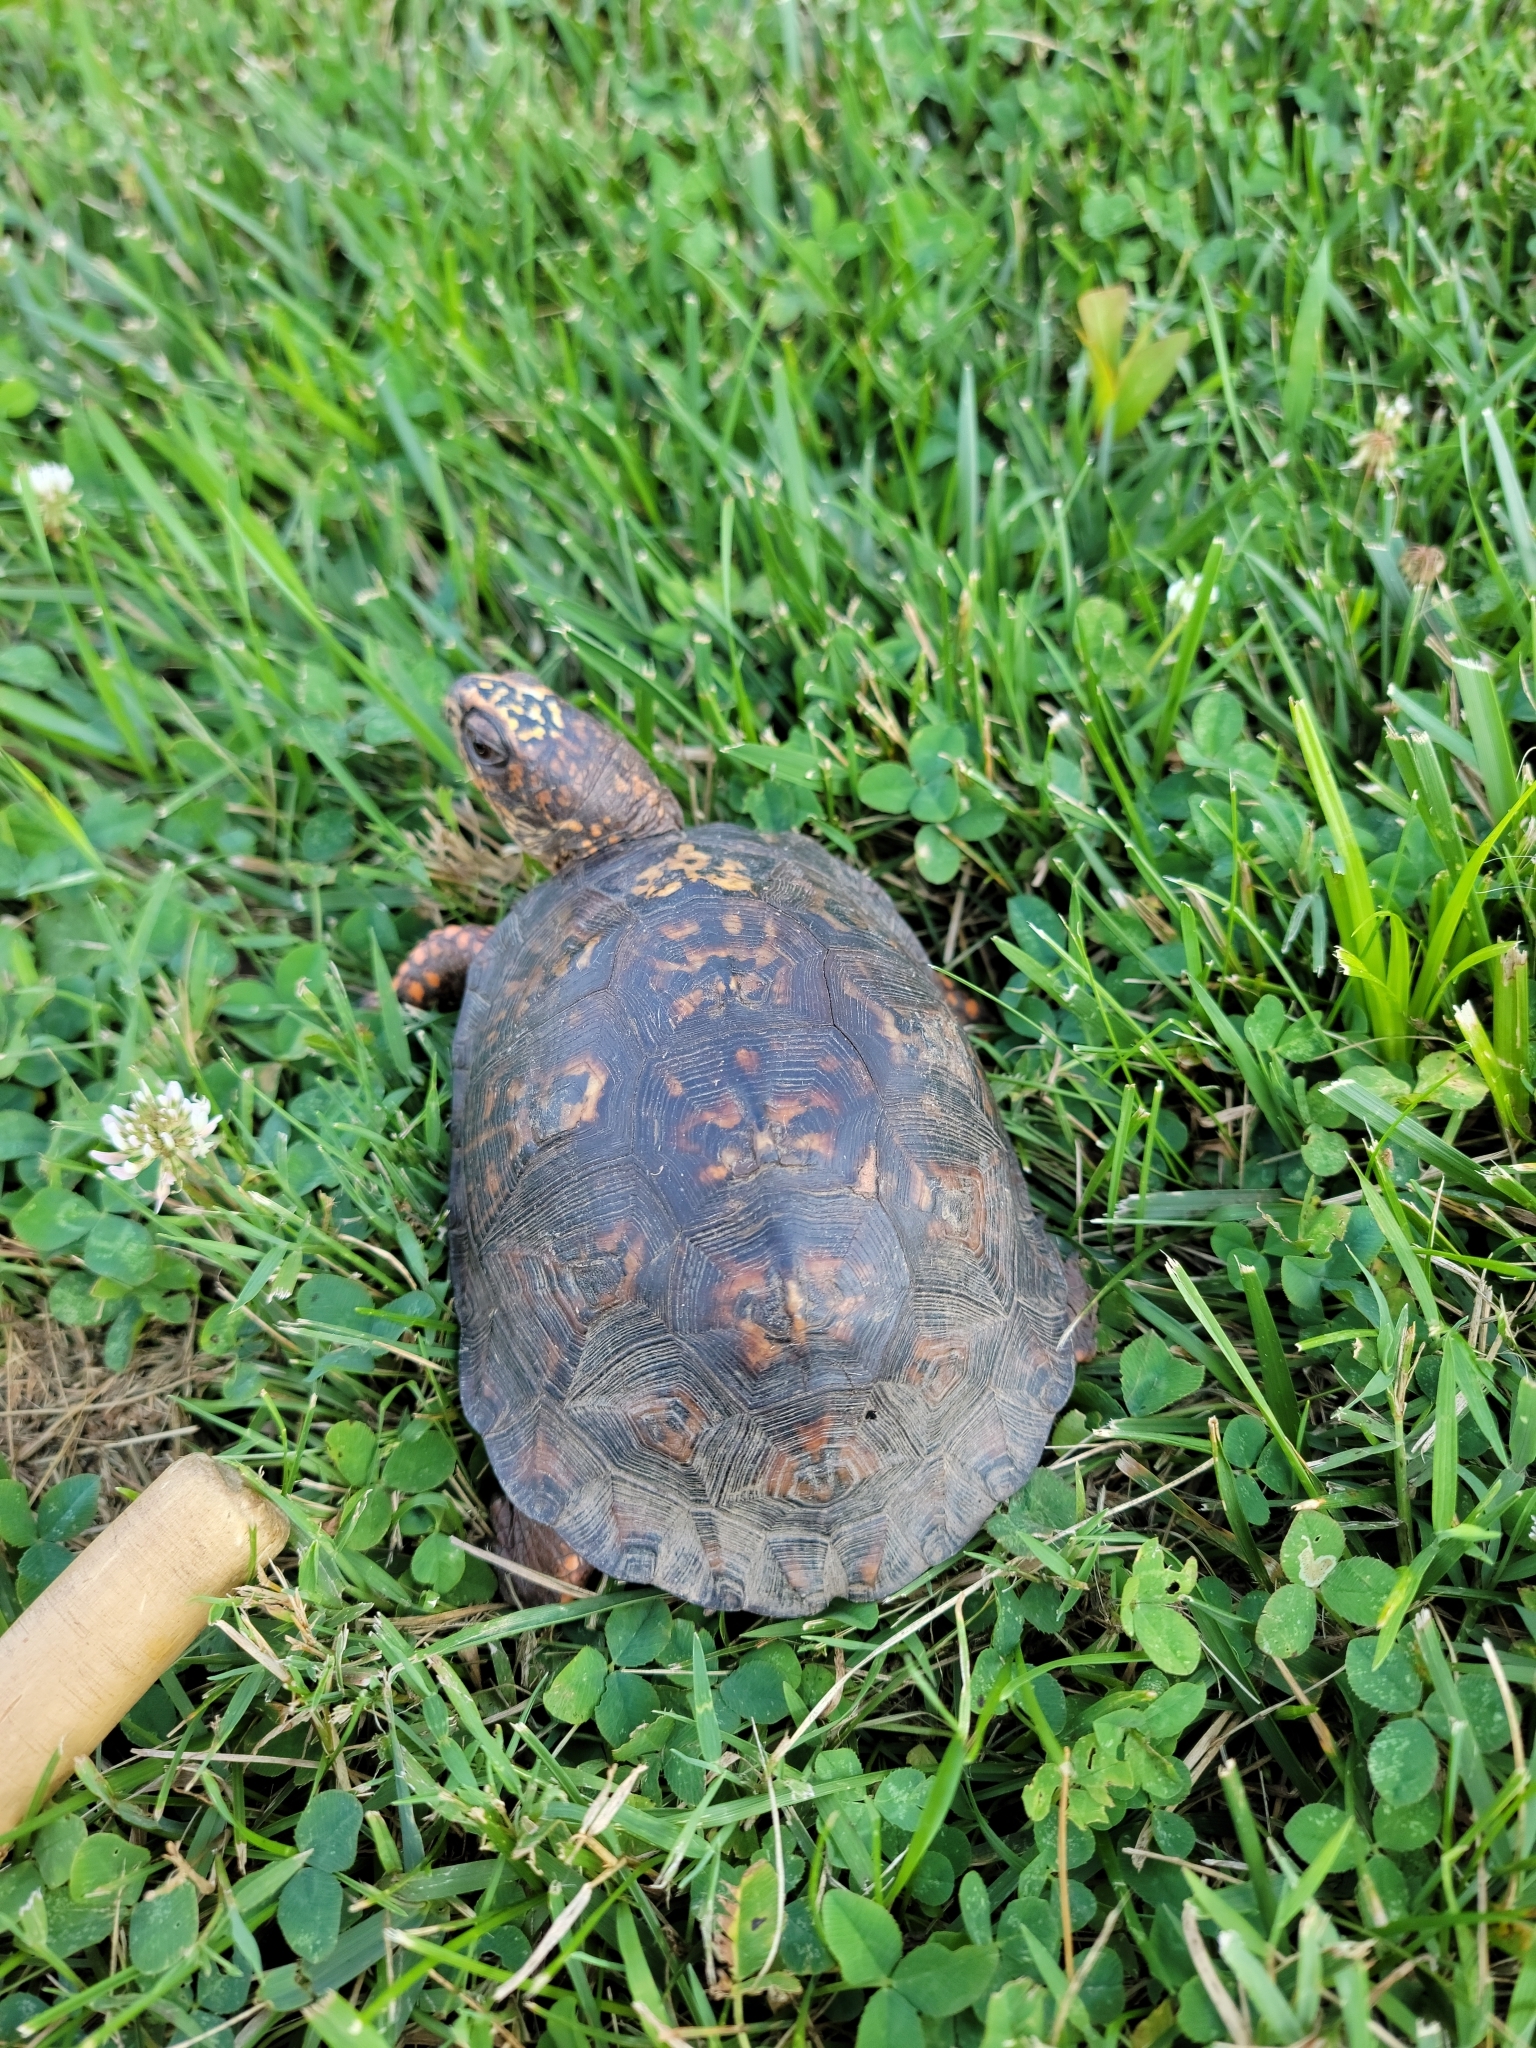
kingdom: Animalia
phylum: Chordata
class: Testudines
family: Emydidae
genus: Terrapene
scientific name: Terrapene carolina
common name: Common box turtle
